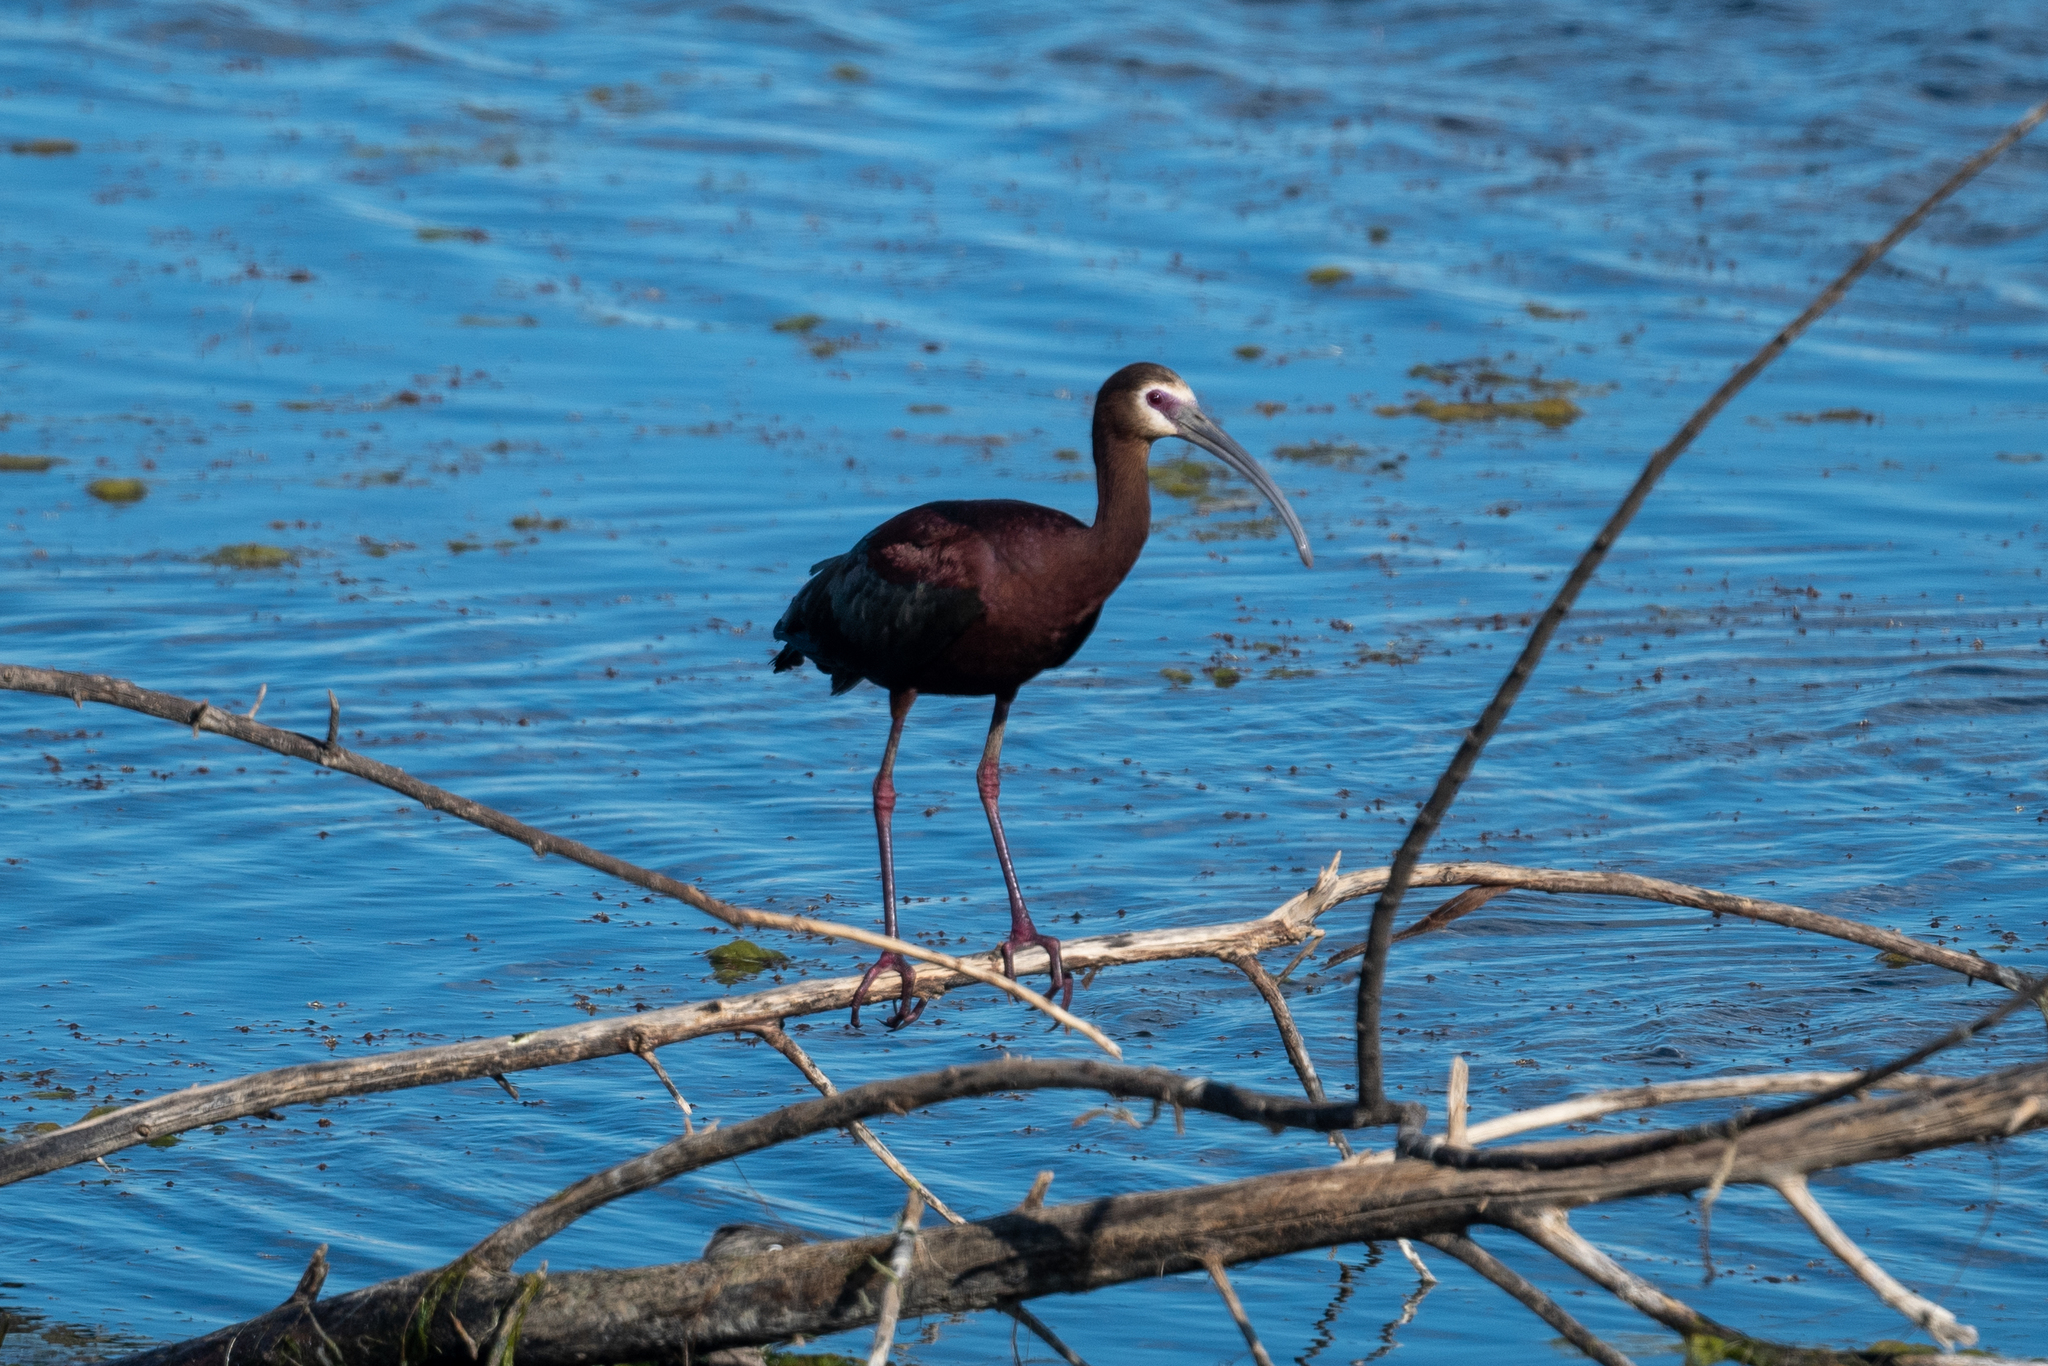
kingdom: Animalia
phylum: Chordata
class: Aves
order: Pelecaniformes
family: Threskiornithidae
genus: Plegadis
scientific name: Plegadis chihi
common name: White-faced ibis
